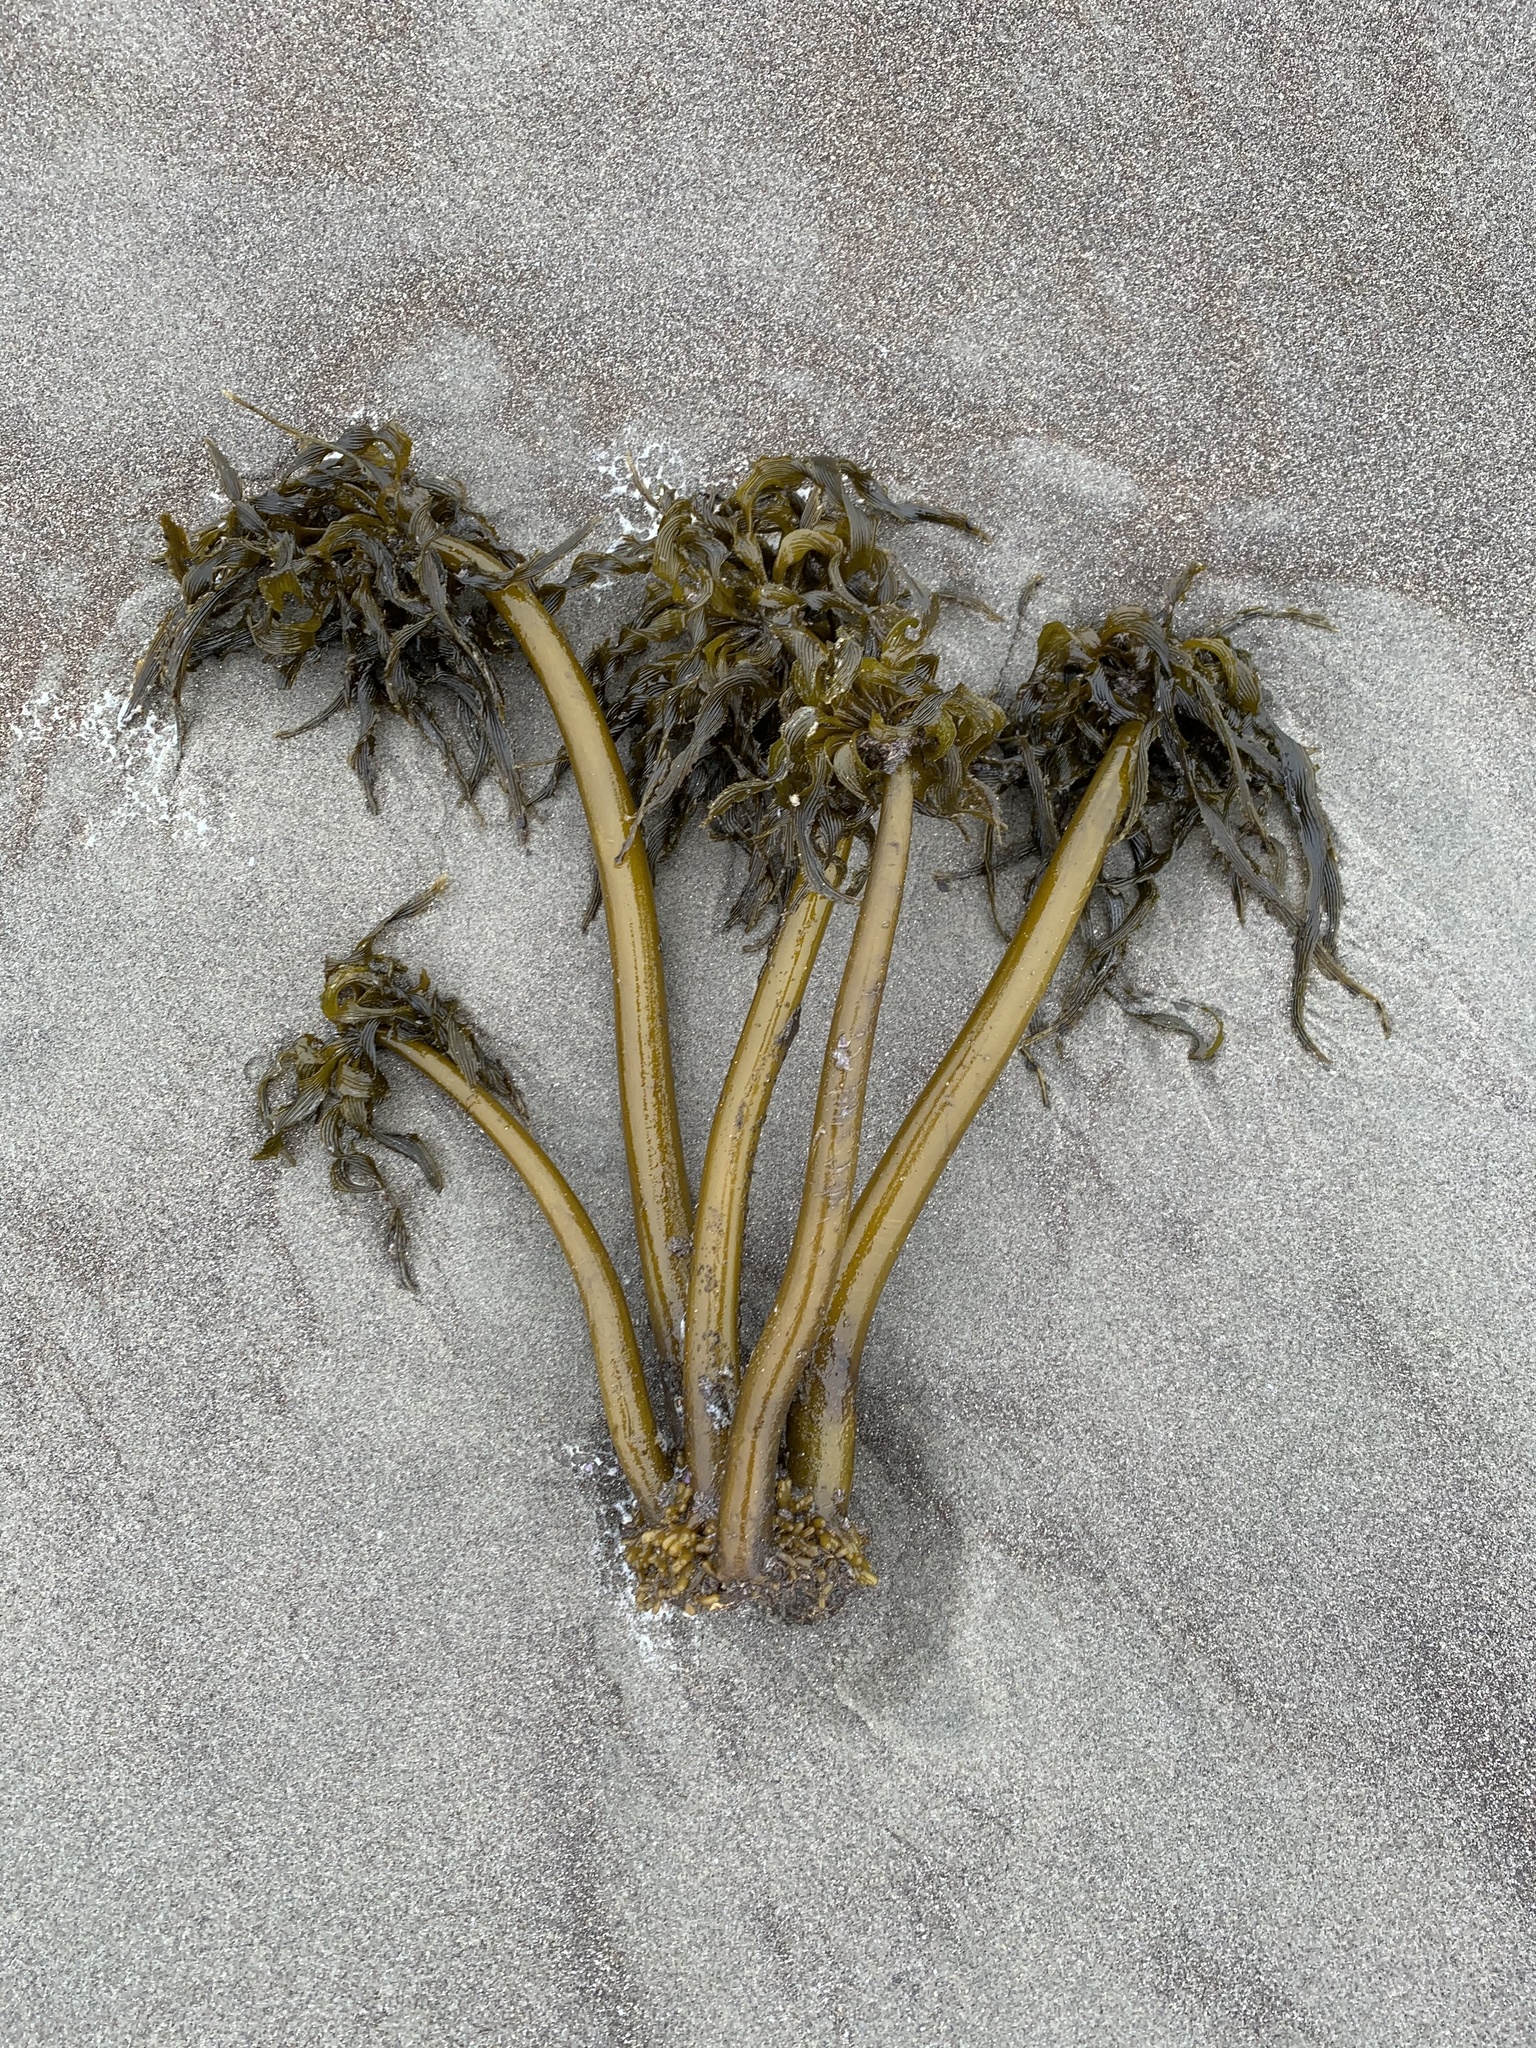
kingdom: Chromista
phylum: Ochrophyta
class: Phaeophyceae
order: Laminariales
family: Laminariaceae
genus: Postelsia
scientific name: Postelsia palmiformis
